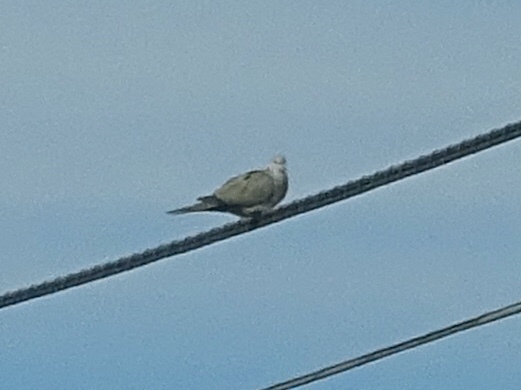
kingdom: Animalia
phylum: Chordata
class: Aves
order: Columbiformes
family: Columbidae
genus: Streptopelia
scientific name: Streptopelia decaocto
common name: Eurasian collared dove
